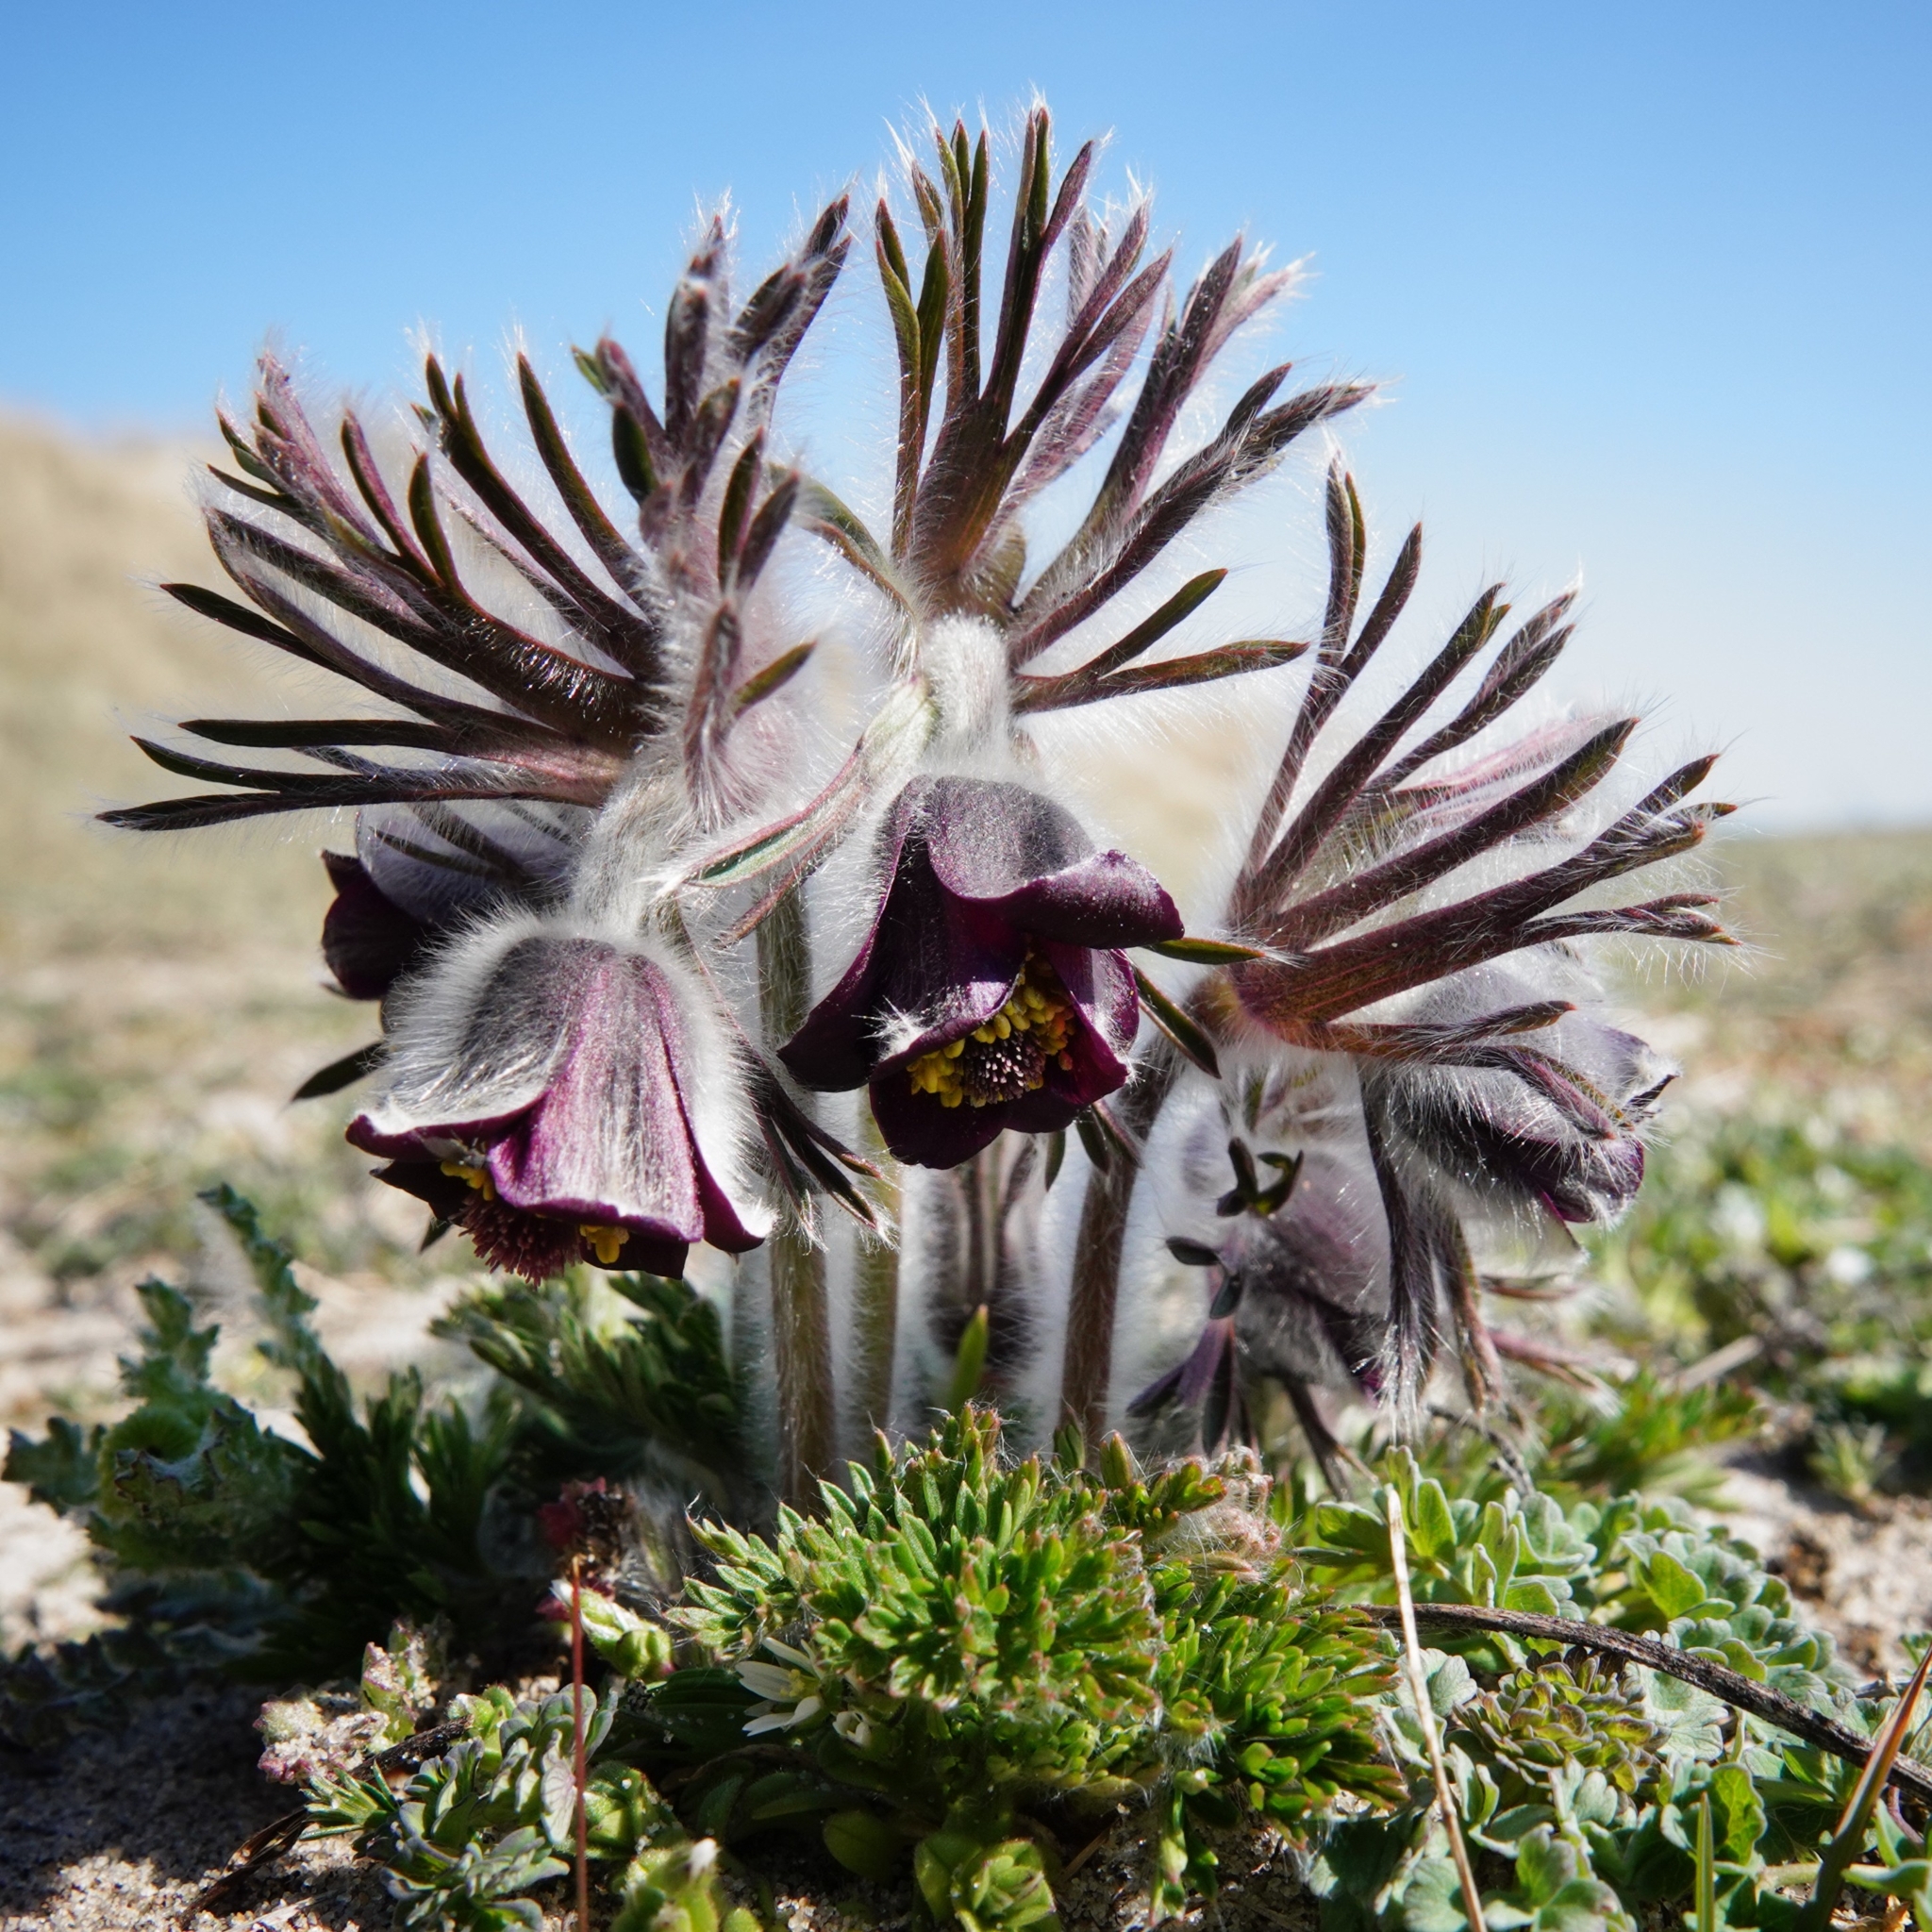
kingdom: Plantae
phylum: Tracheophyta
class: Magnoliopsida
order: Ranunculales
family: Ranunculaceae
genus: Pulsatilla
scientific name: Pulsatilla pratensis
